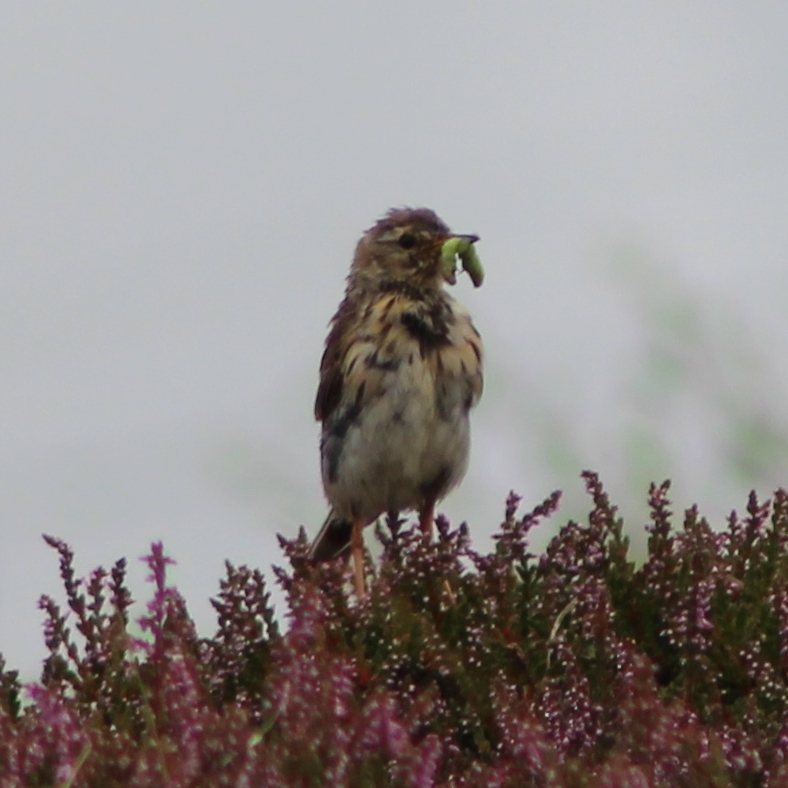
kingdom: Animalia
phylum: Chordata
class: Aves
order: Passeriformes
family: Motacillidae
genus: Anthus
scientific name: Anthus pratensis
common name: Meadow pipit
